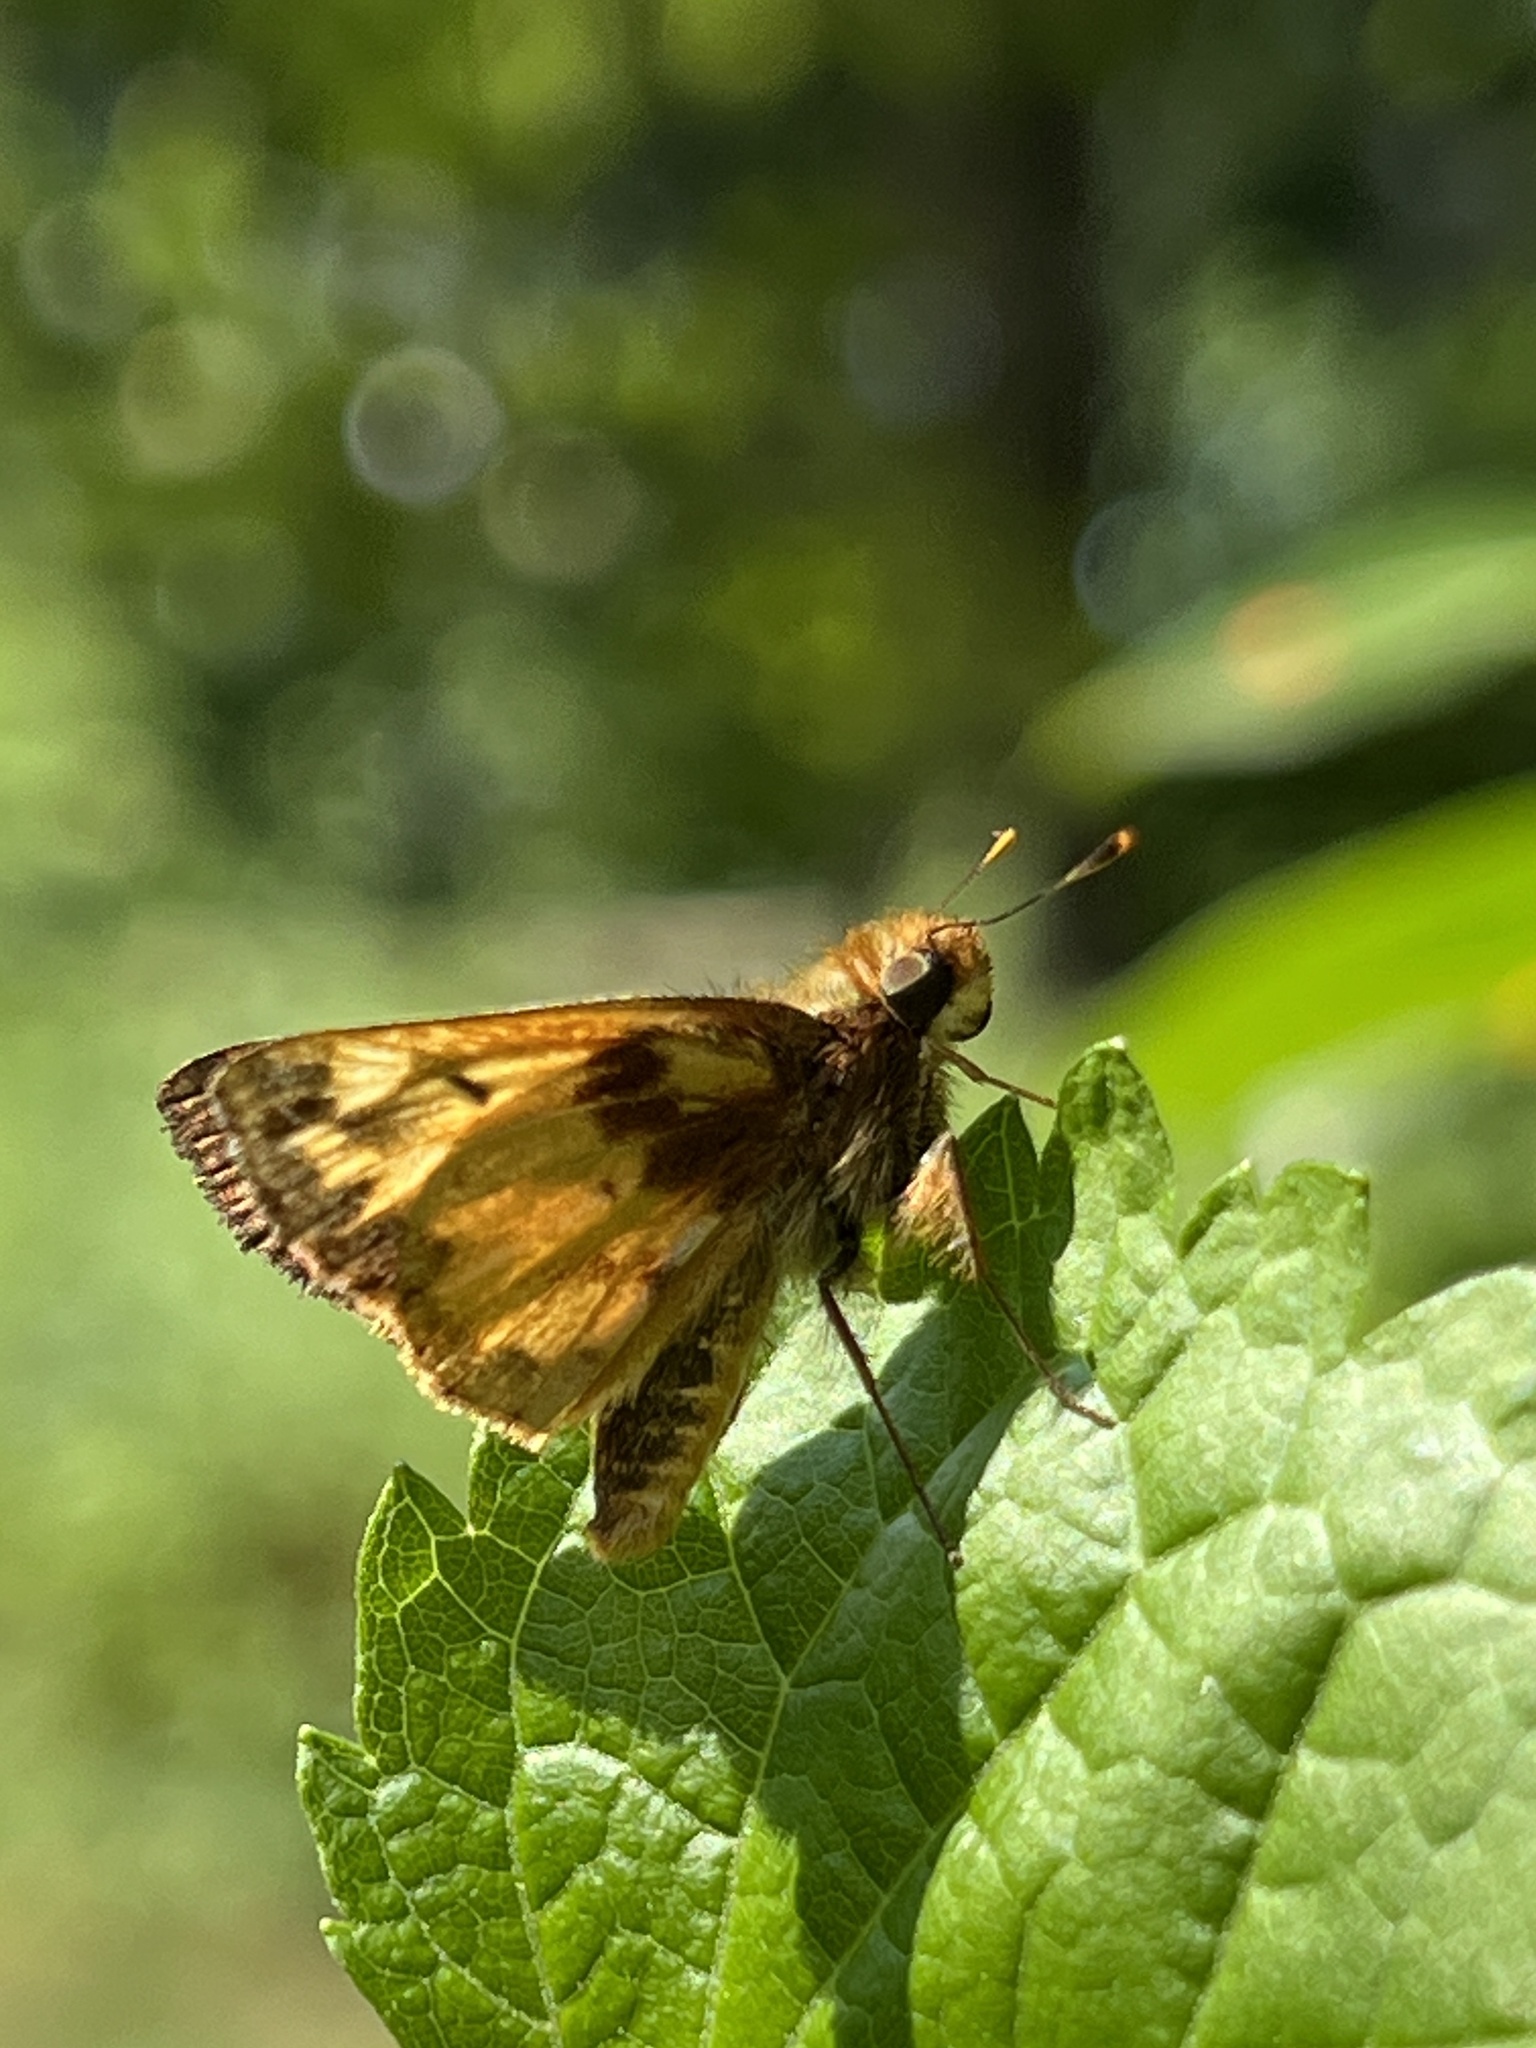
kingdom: Animalia
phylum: Arthropoda
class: Insecta
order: Lepidoptera
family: Hesperiidae
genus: Lon
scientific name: Lon zabulon
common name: Zabulon skipper
